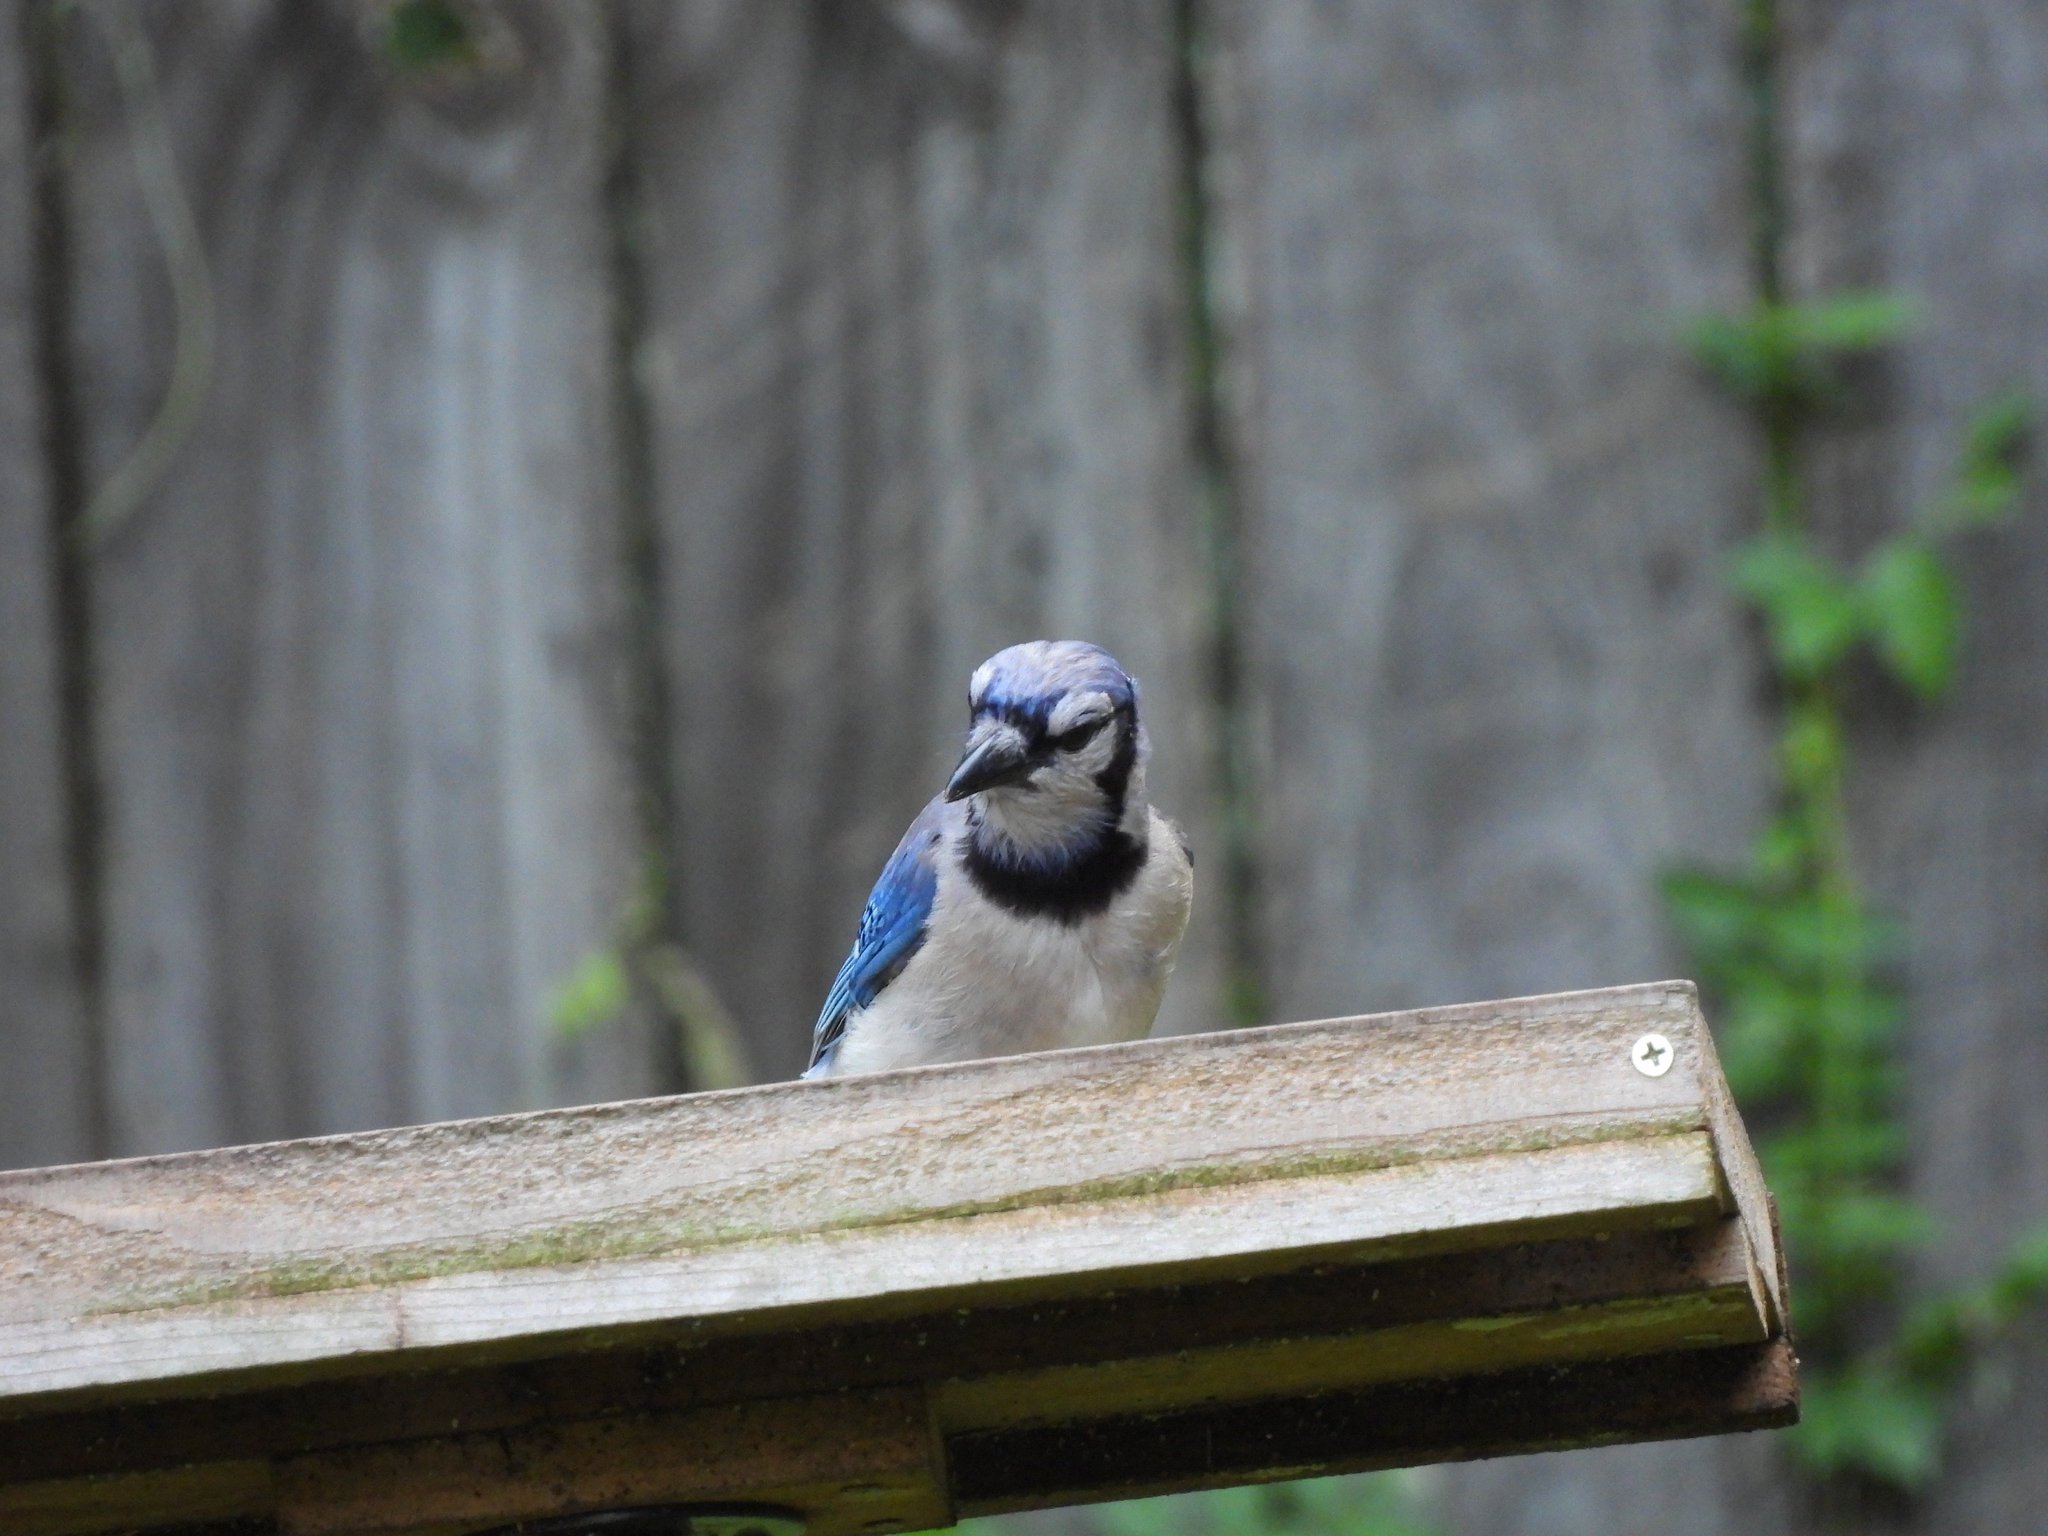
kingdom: Animalia
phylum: Chordata
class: Aves
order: Passeriformes
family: Corvidae
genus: Cyanocitta
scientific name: Cyanocitta cristata
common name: Blue jay
